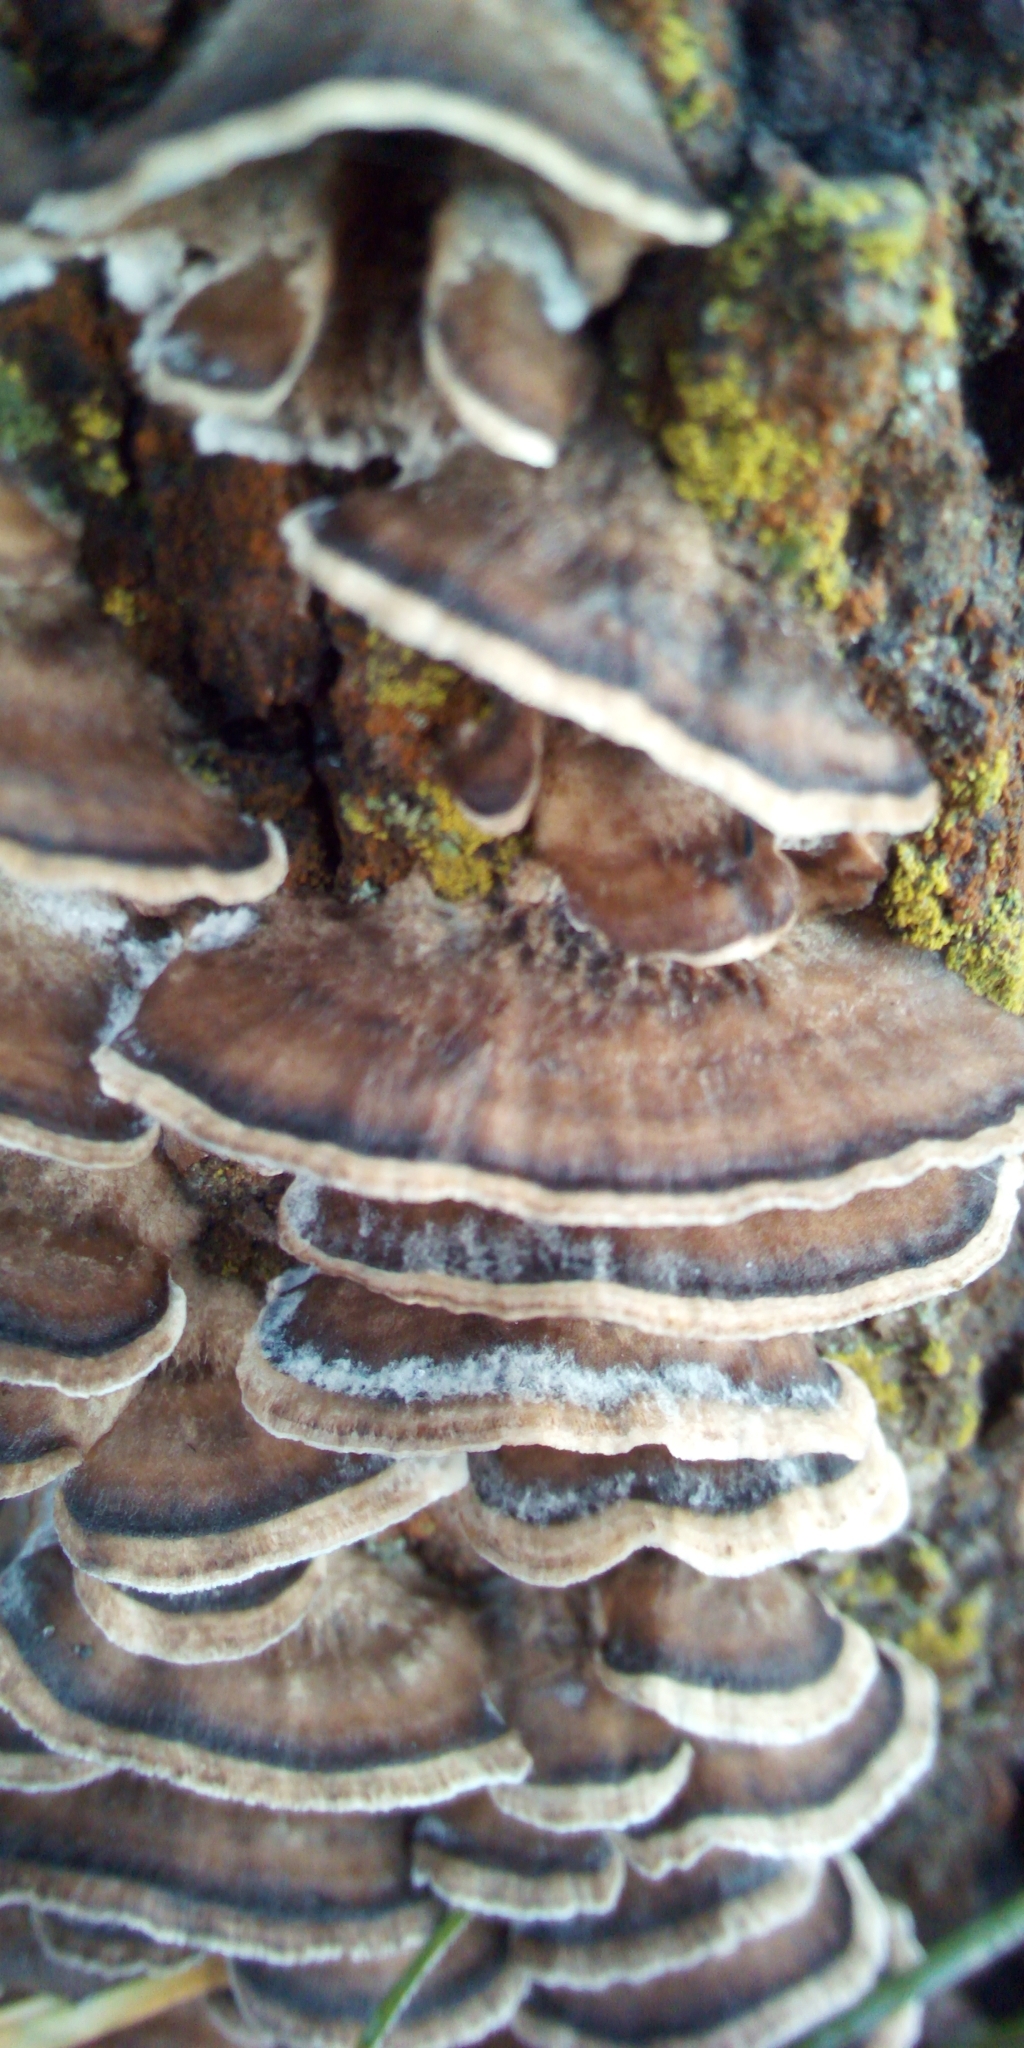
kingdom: Fungi
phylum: Basidiomycota
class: Agaricomycetes
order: Polyporales
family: Phanerochaetaceae
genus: Bjerkandera
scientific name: Bjerkandera adusta
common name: Smoky bracket
